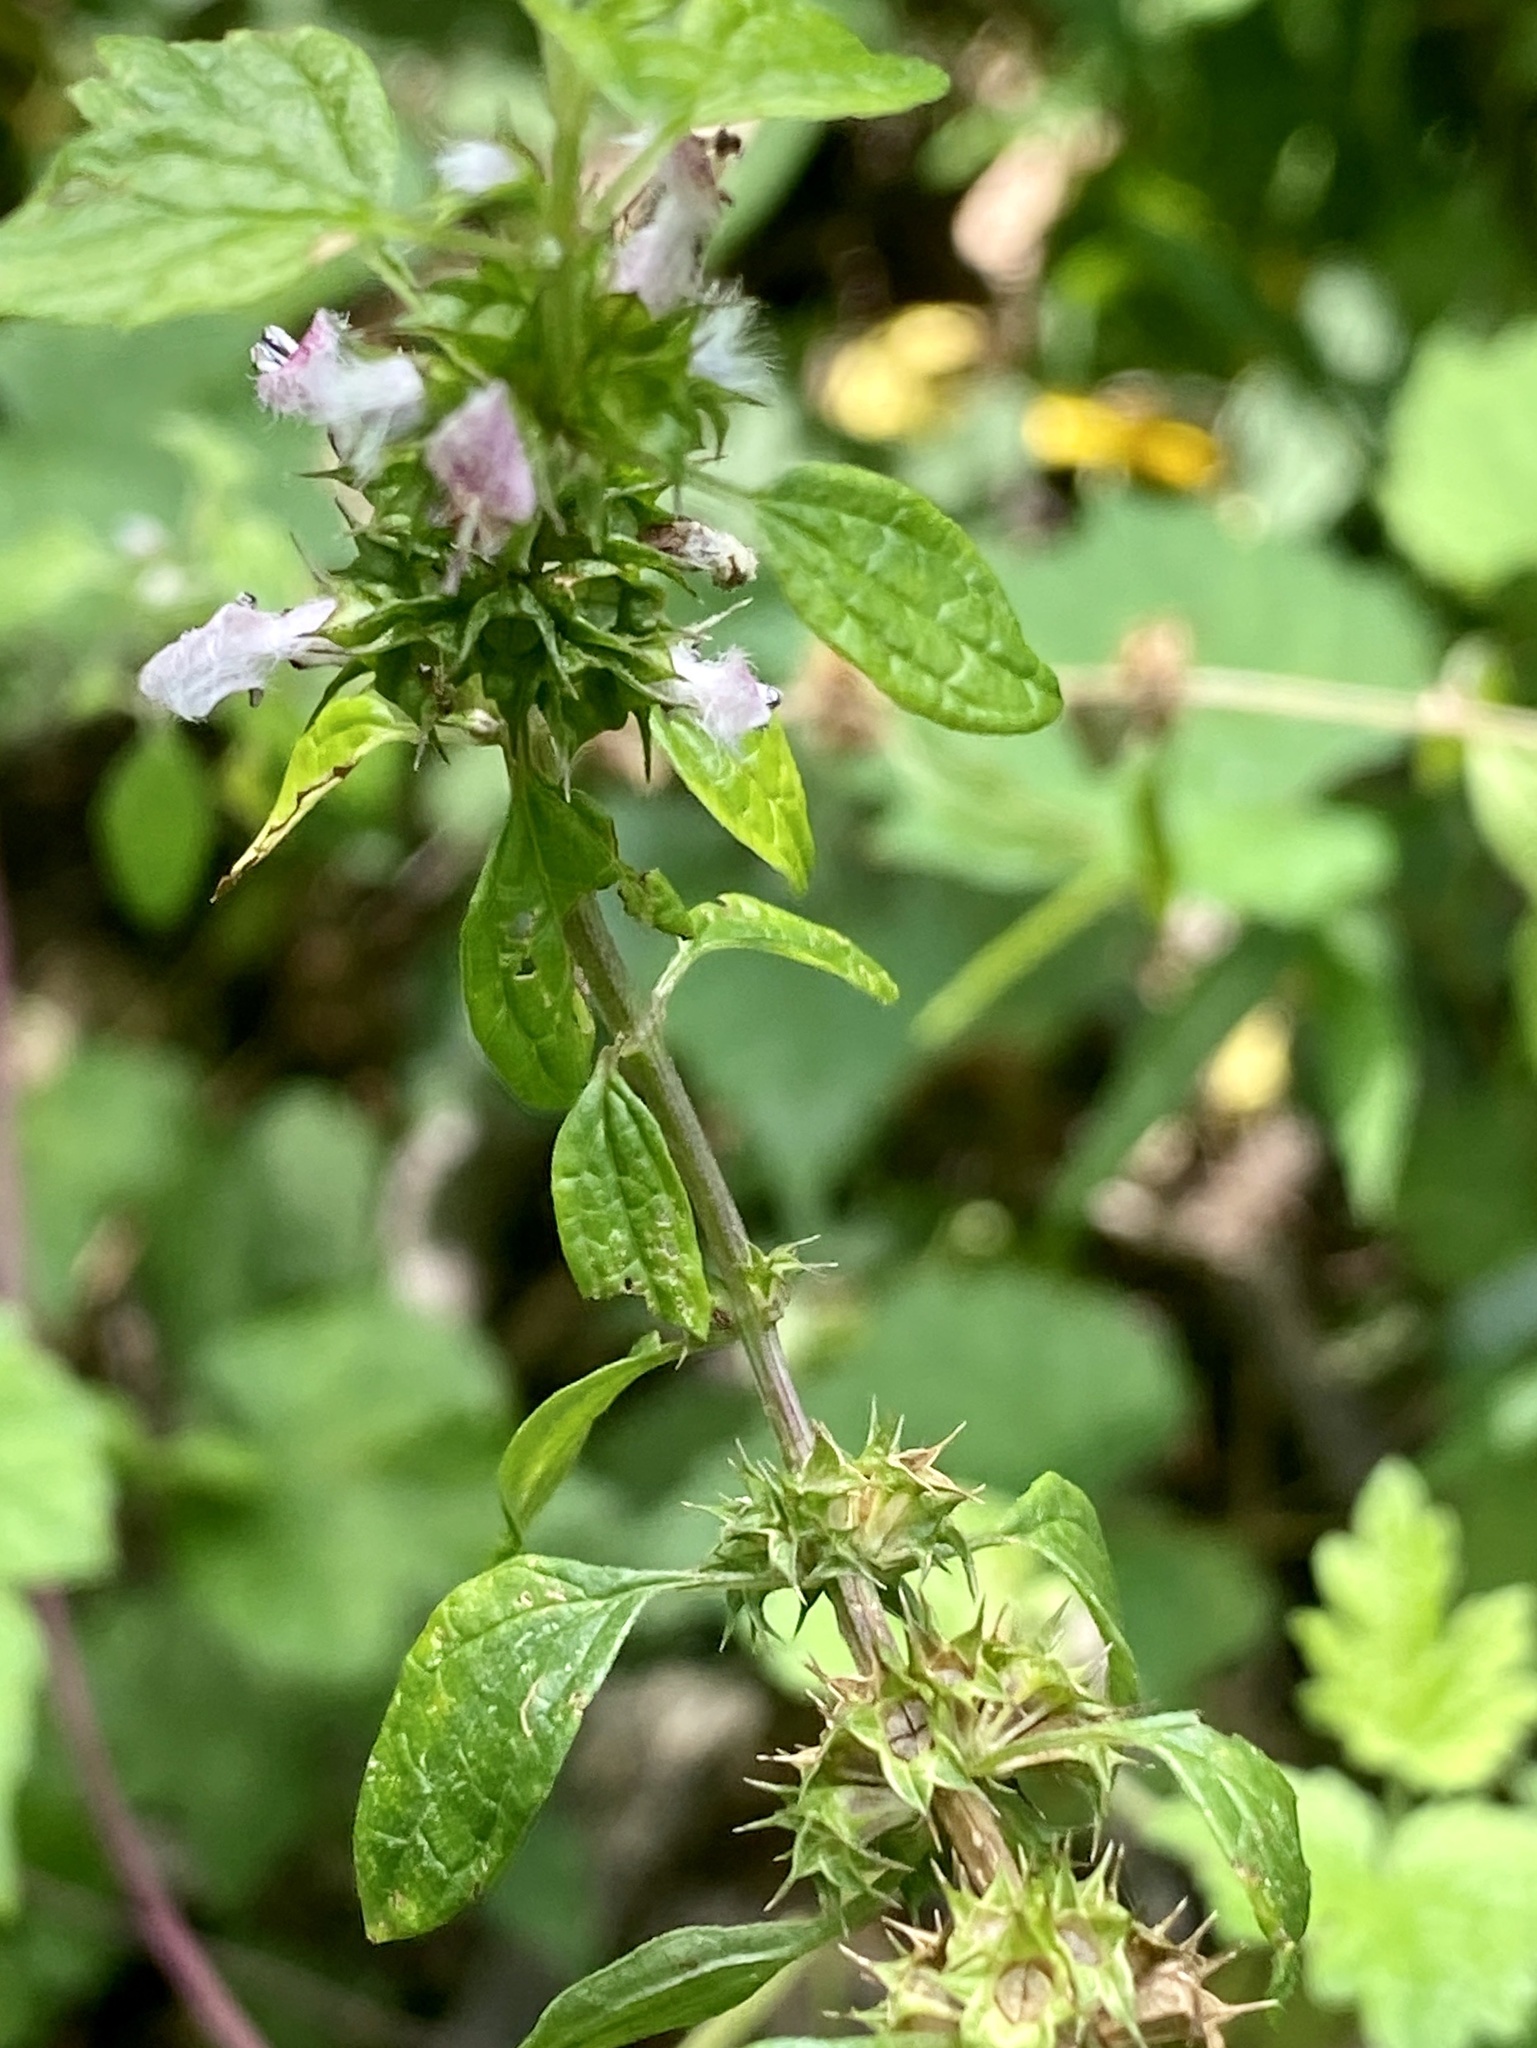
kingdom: Plantae
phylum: Tracheophyta
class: Magnoliopsida
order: Lamiales
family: Lamiaceae
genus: Leonurus
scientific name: Leonurus cardiaca
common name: Motherwort
